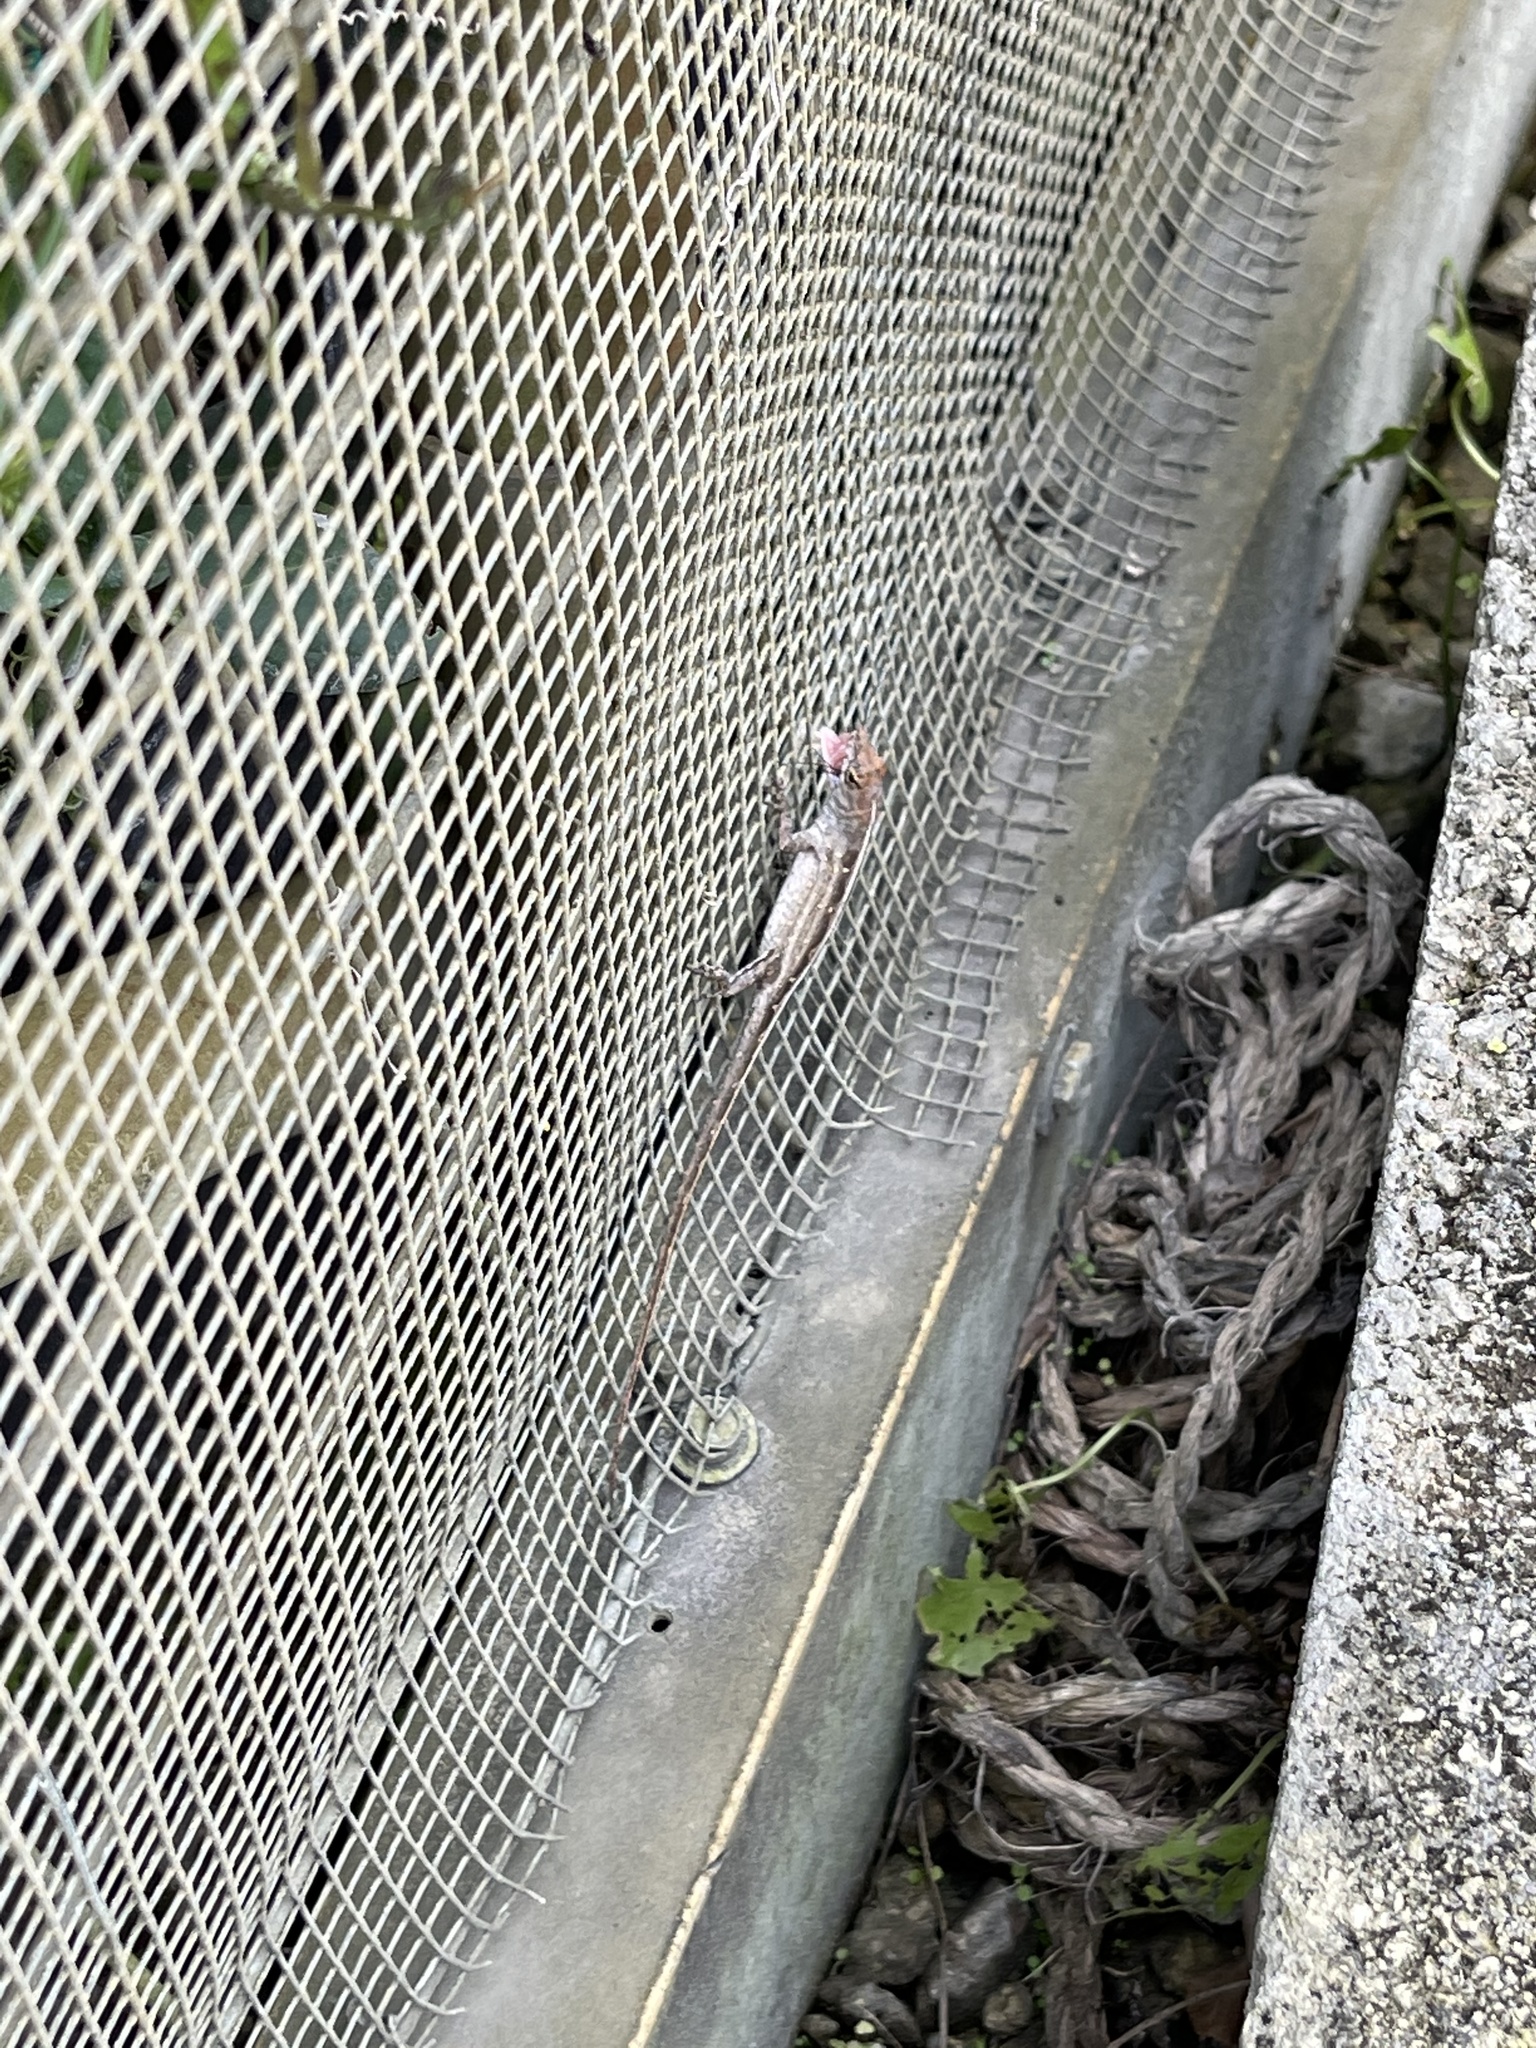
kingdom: Animalia
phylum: Chordata
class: Squamata
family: Dactyloidae
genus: Anolis
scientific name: Anolis sagrei
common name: Brown anole
